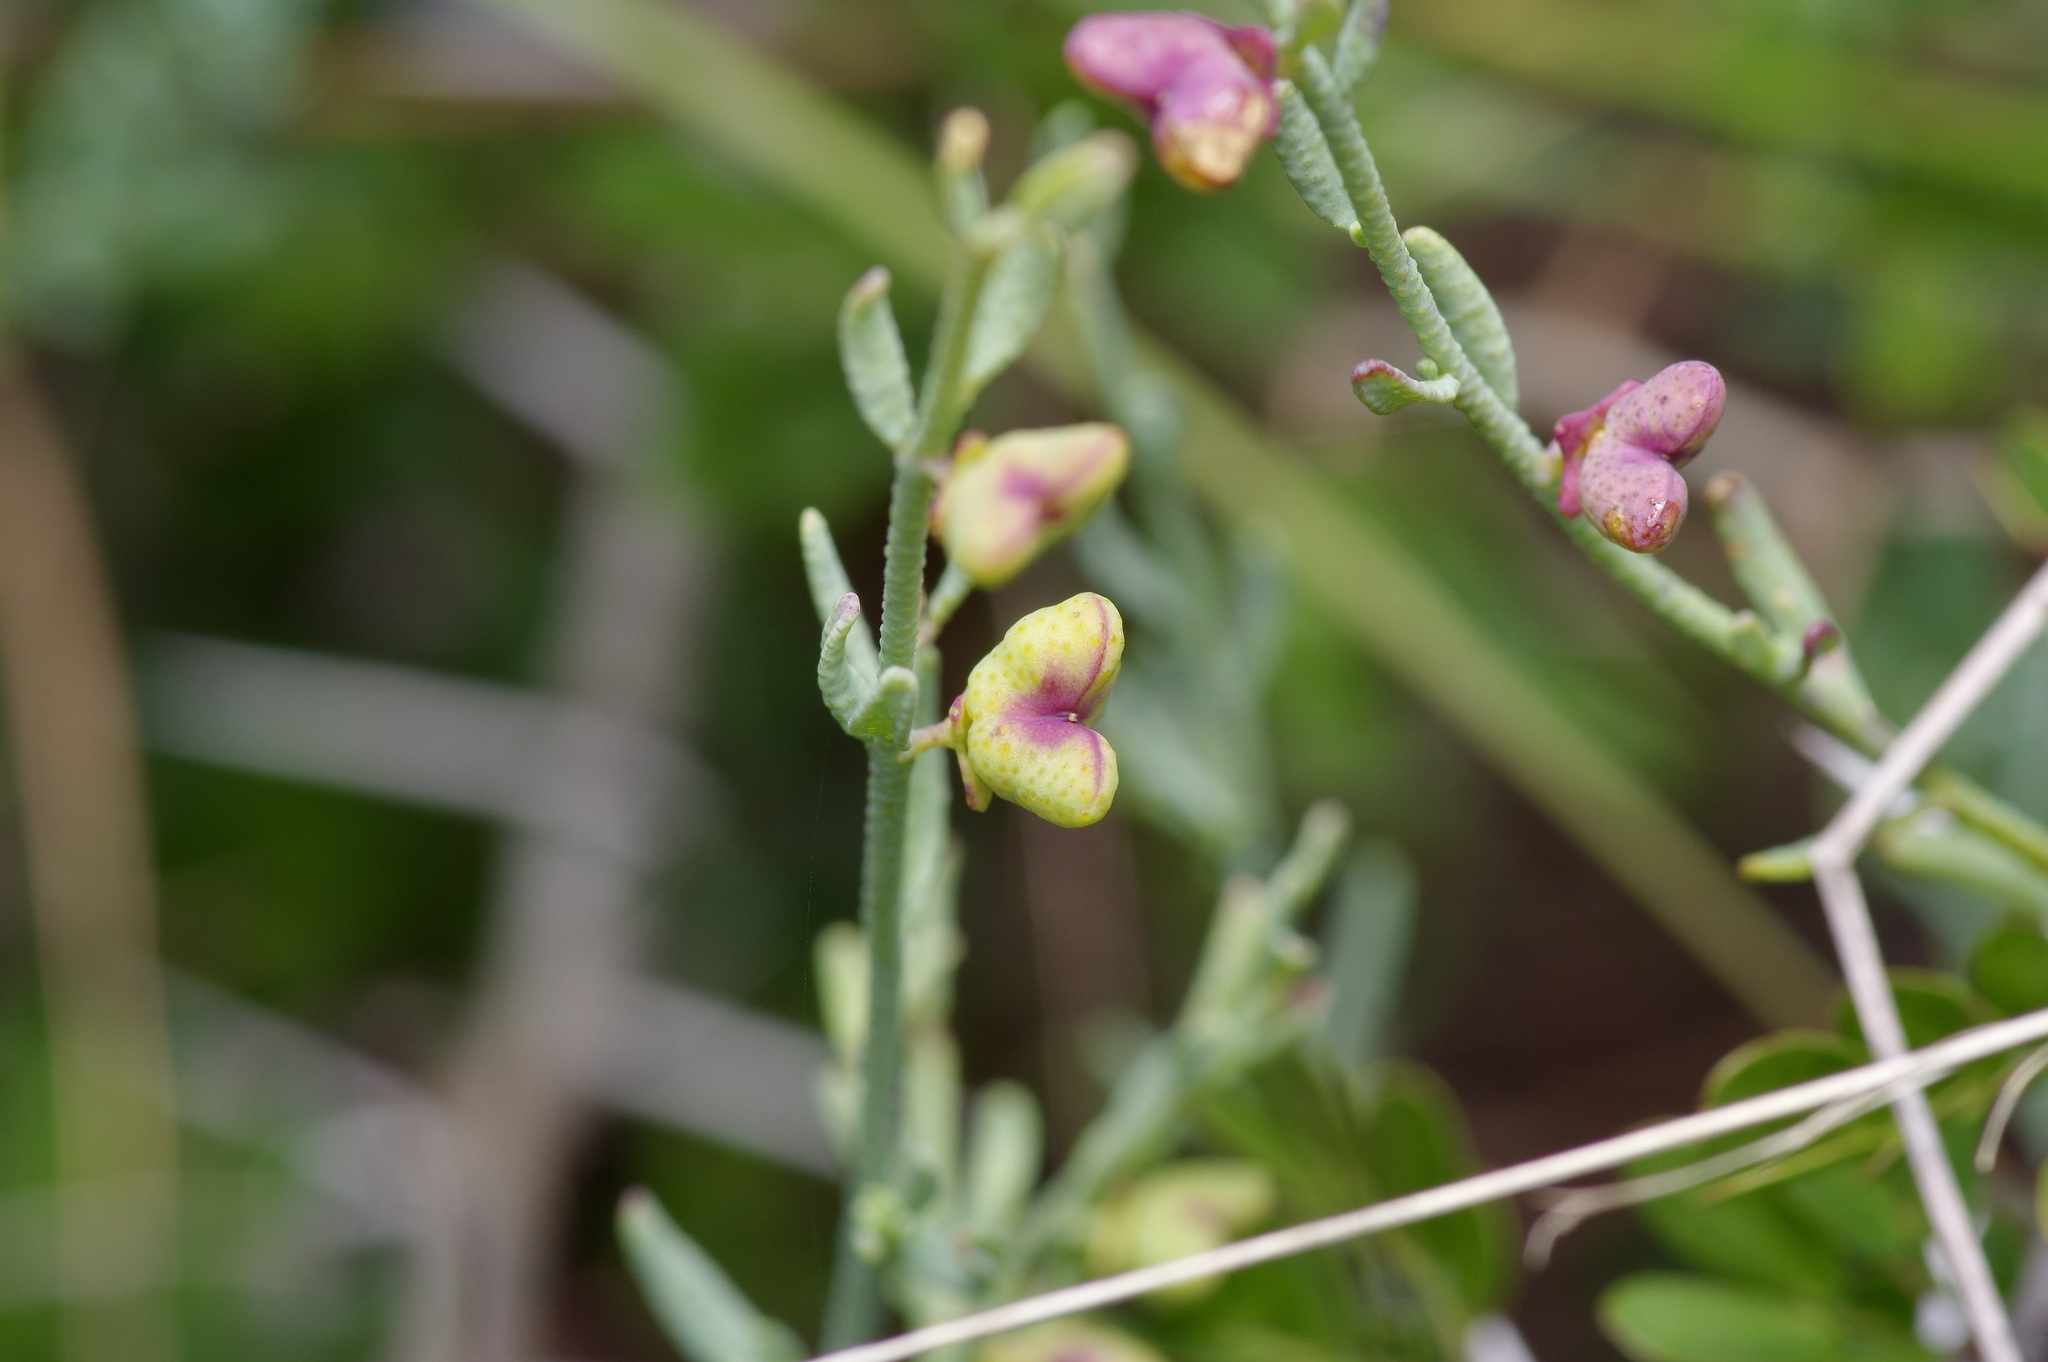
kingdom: Plantae
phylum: Tracheophyta
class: Magnoliopsida
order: Sapindales
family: Rutaceae
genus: Thamnosma
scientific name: Thamnosma texana
